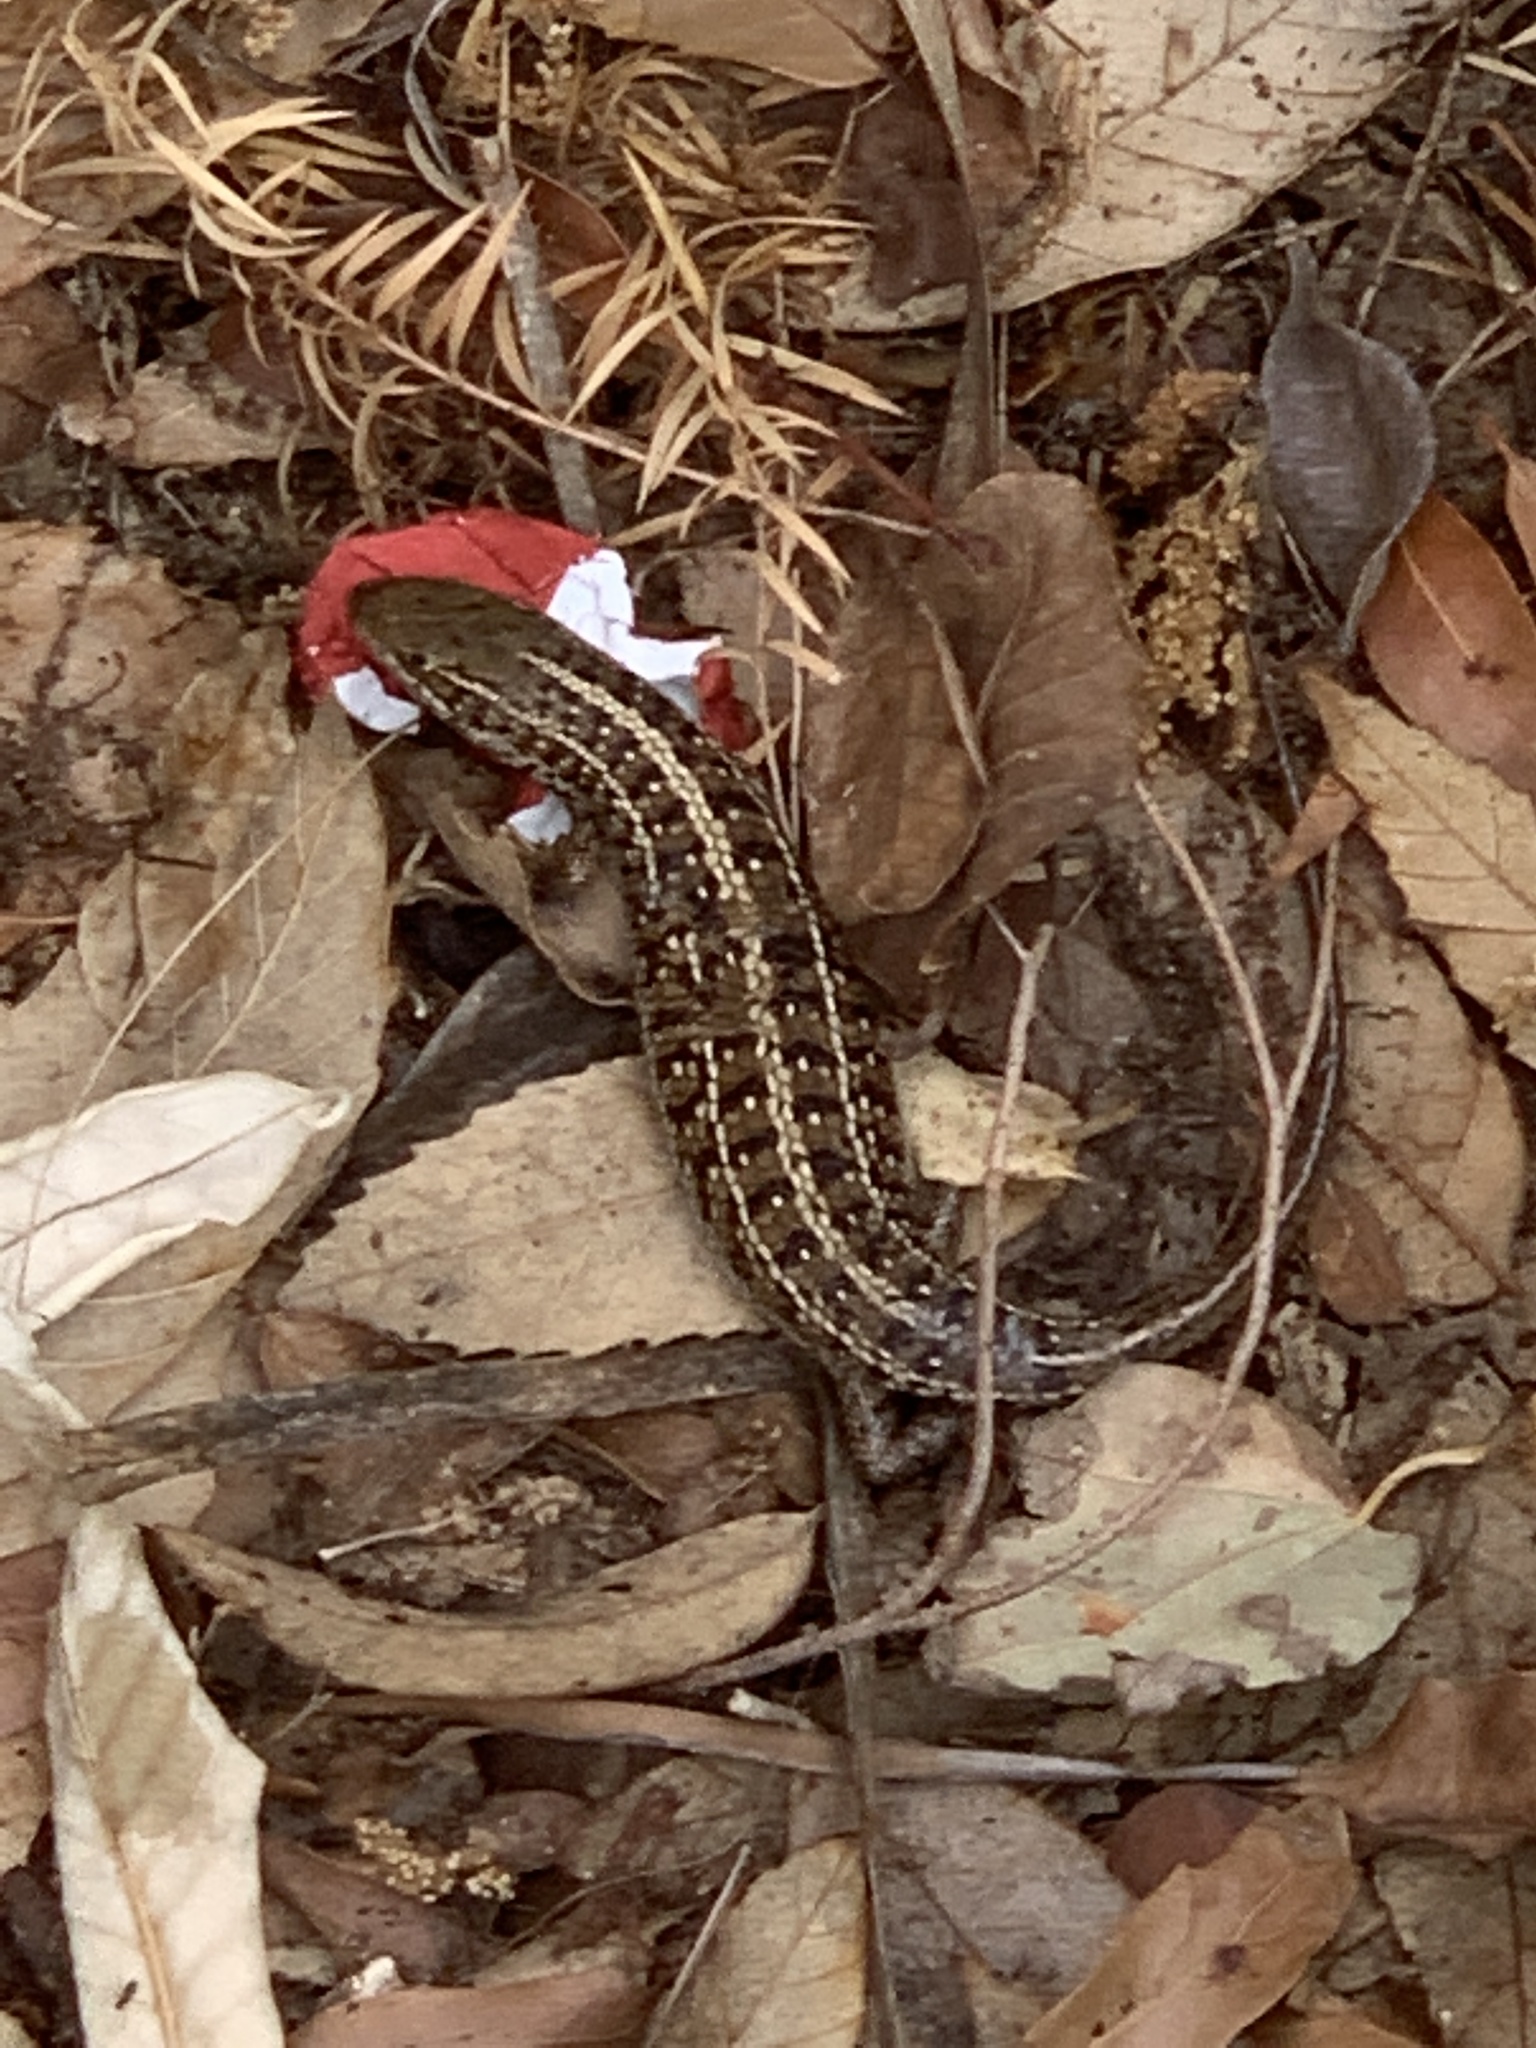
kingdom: Animalia
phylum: Chordata
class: Squamata
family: Scincidae
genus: Trachylepis
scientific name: Trachylepis capensis
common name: Cape skink
